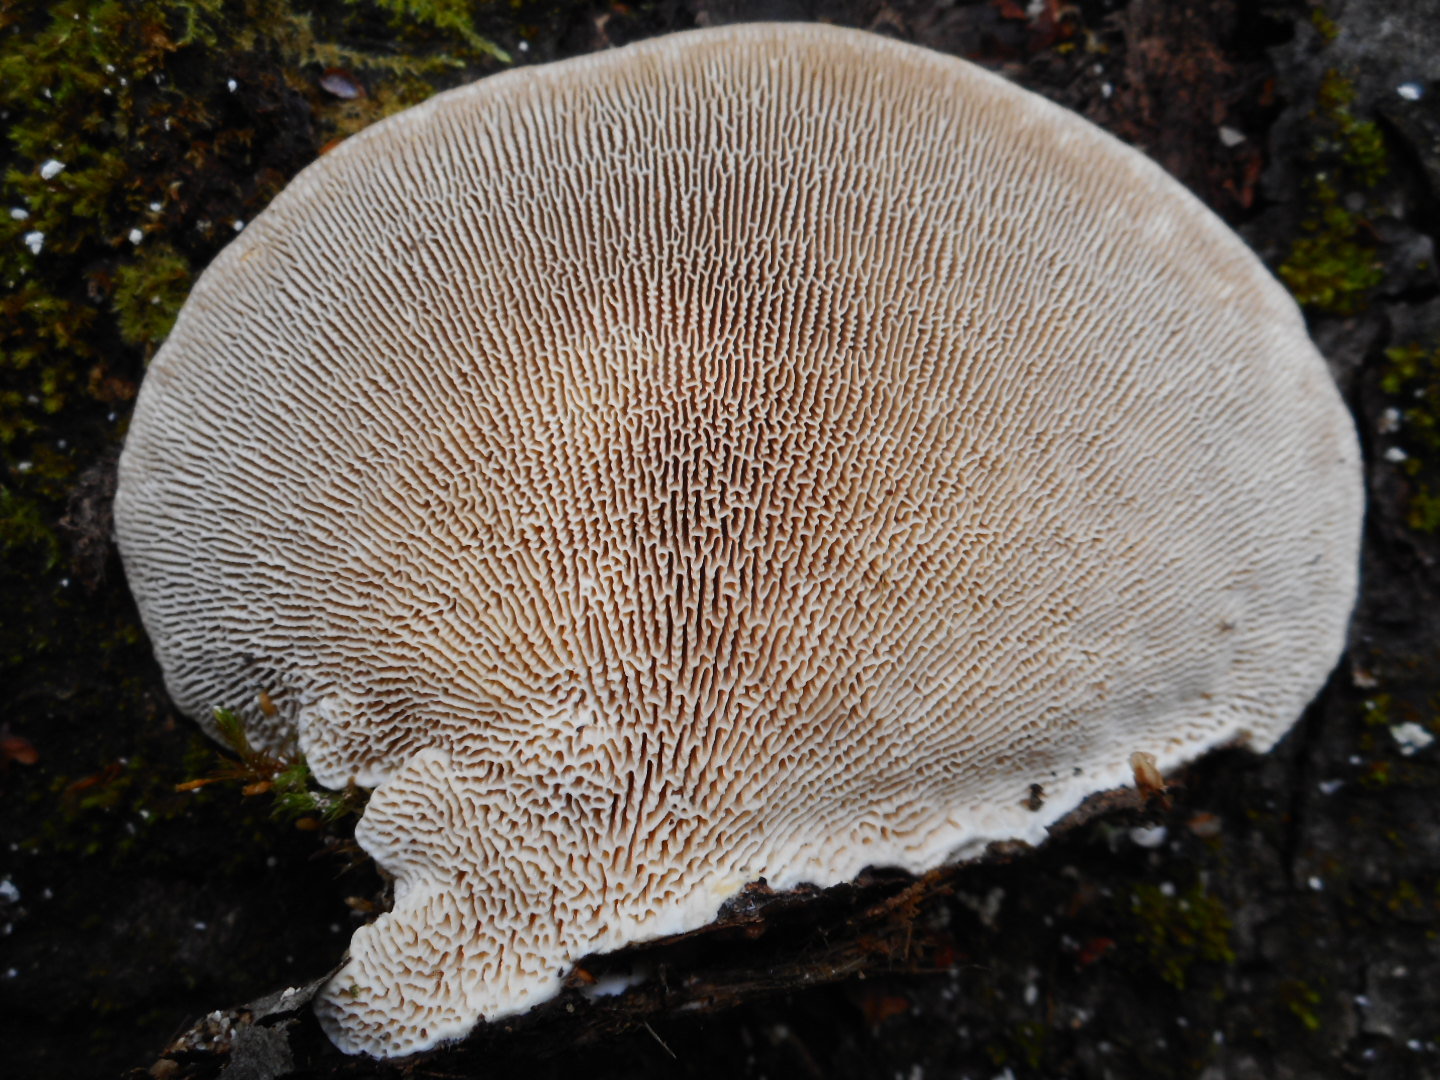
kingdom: Fungi
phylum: Basidiomycota
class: Agaricomycetes
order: Polyporales
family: Polyporaceae
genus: Trametes
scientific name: Trametes gibbosa
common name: Lumpy bracket
